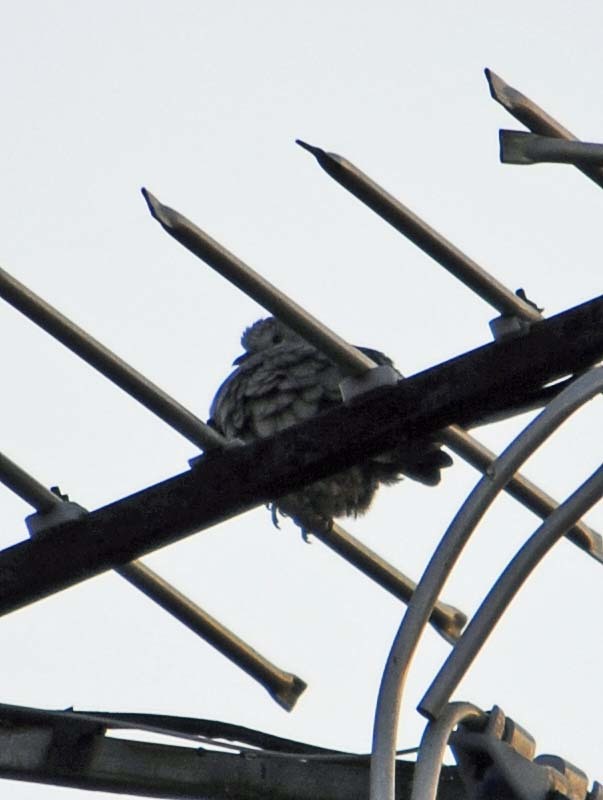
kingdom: Animalia
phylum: Chordata
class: Aves
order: Columbiformes
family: Columbidae
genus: Columbina
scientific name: Columbina inca
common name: Inca dove
